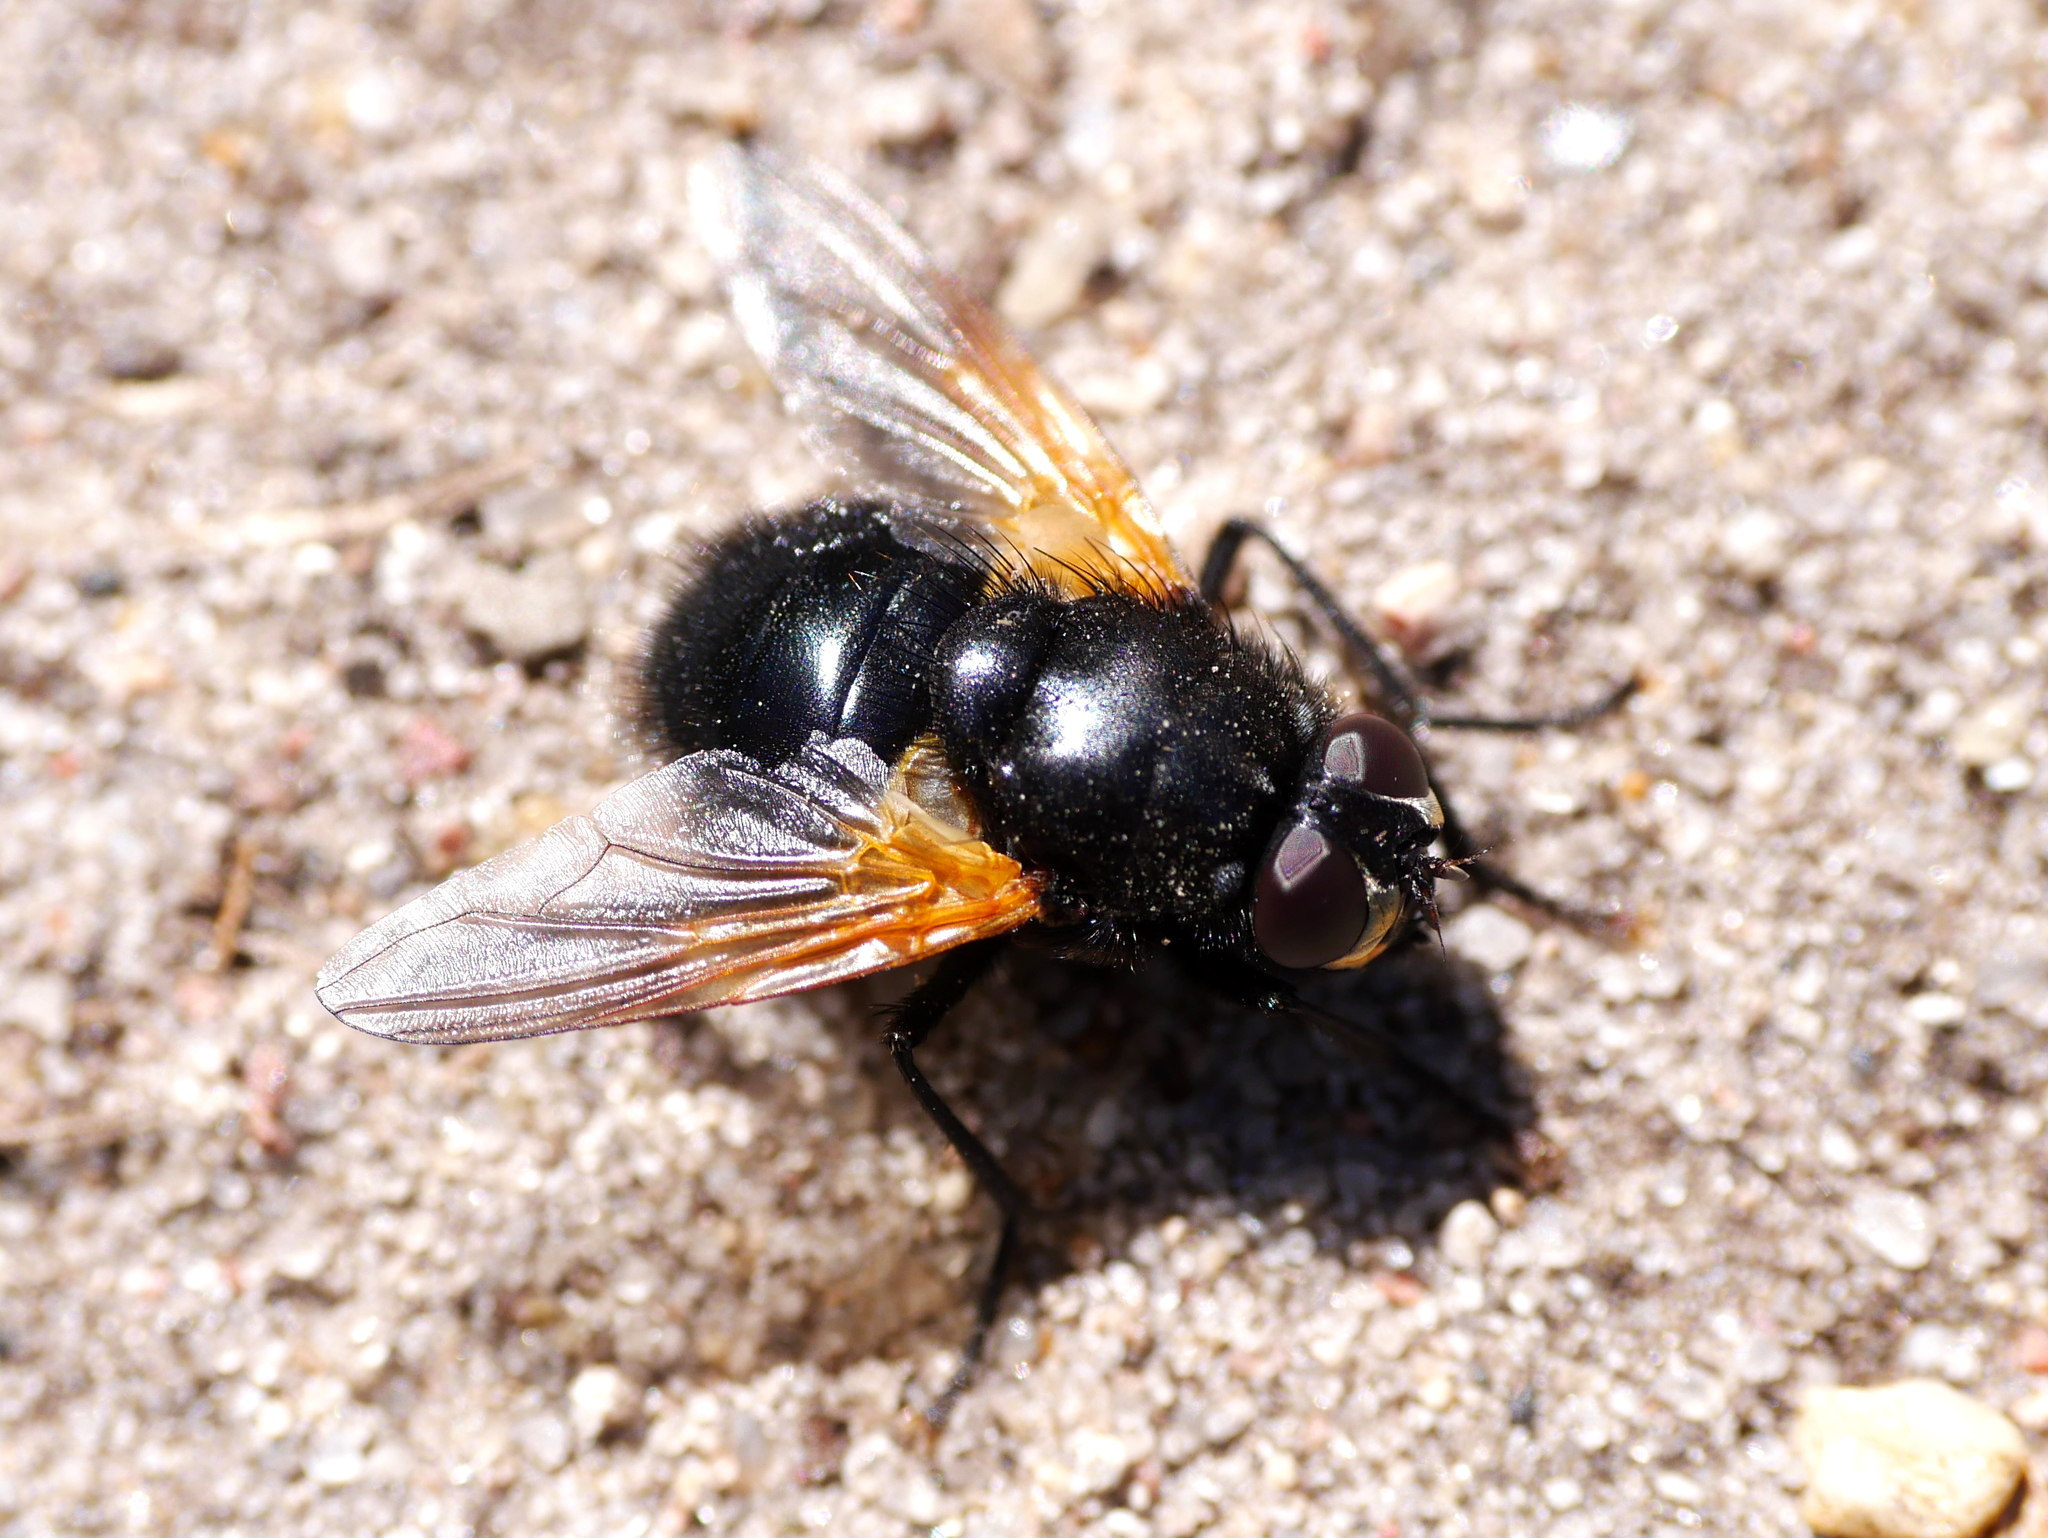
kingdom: Animalia
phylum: Arthropoda
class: Insecta
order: Diptera
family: Muscidae
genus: Mesembrina
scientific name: Mesembrina meridiana
